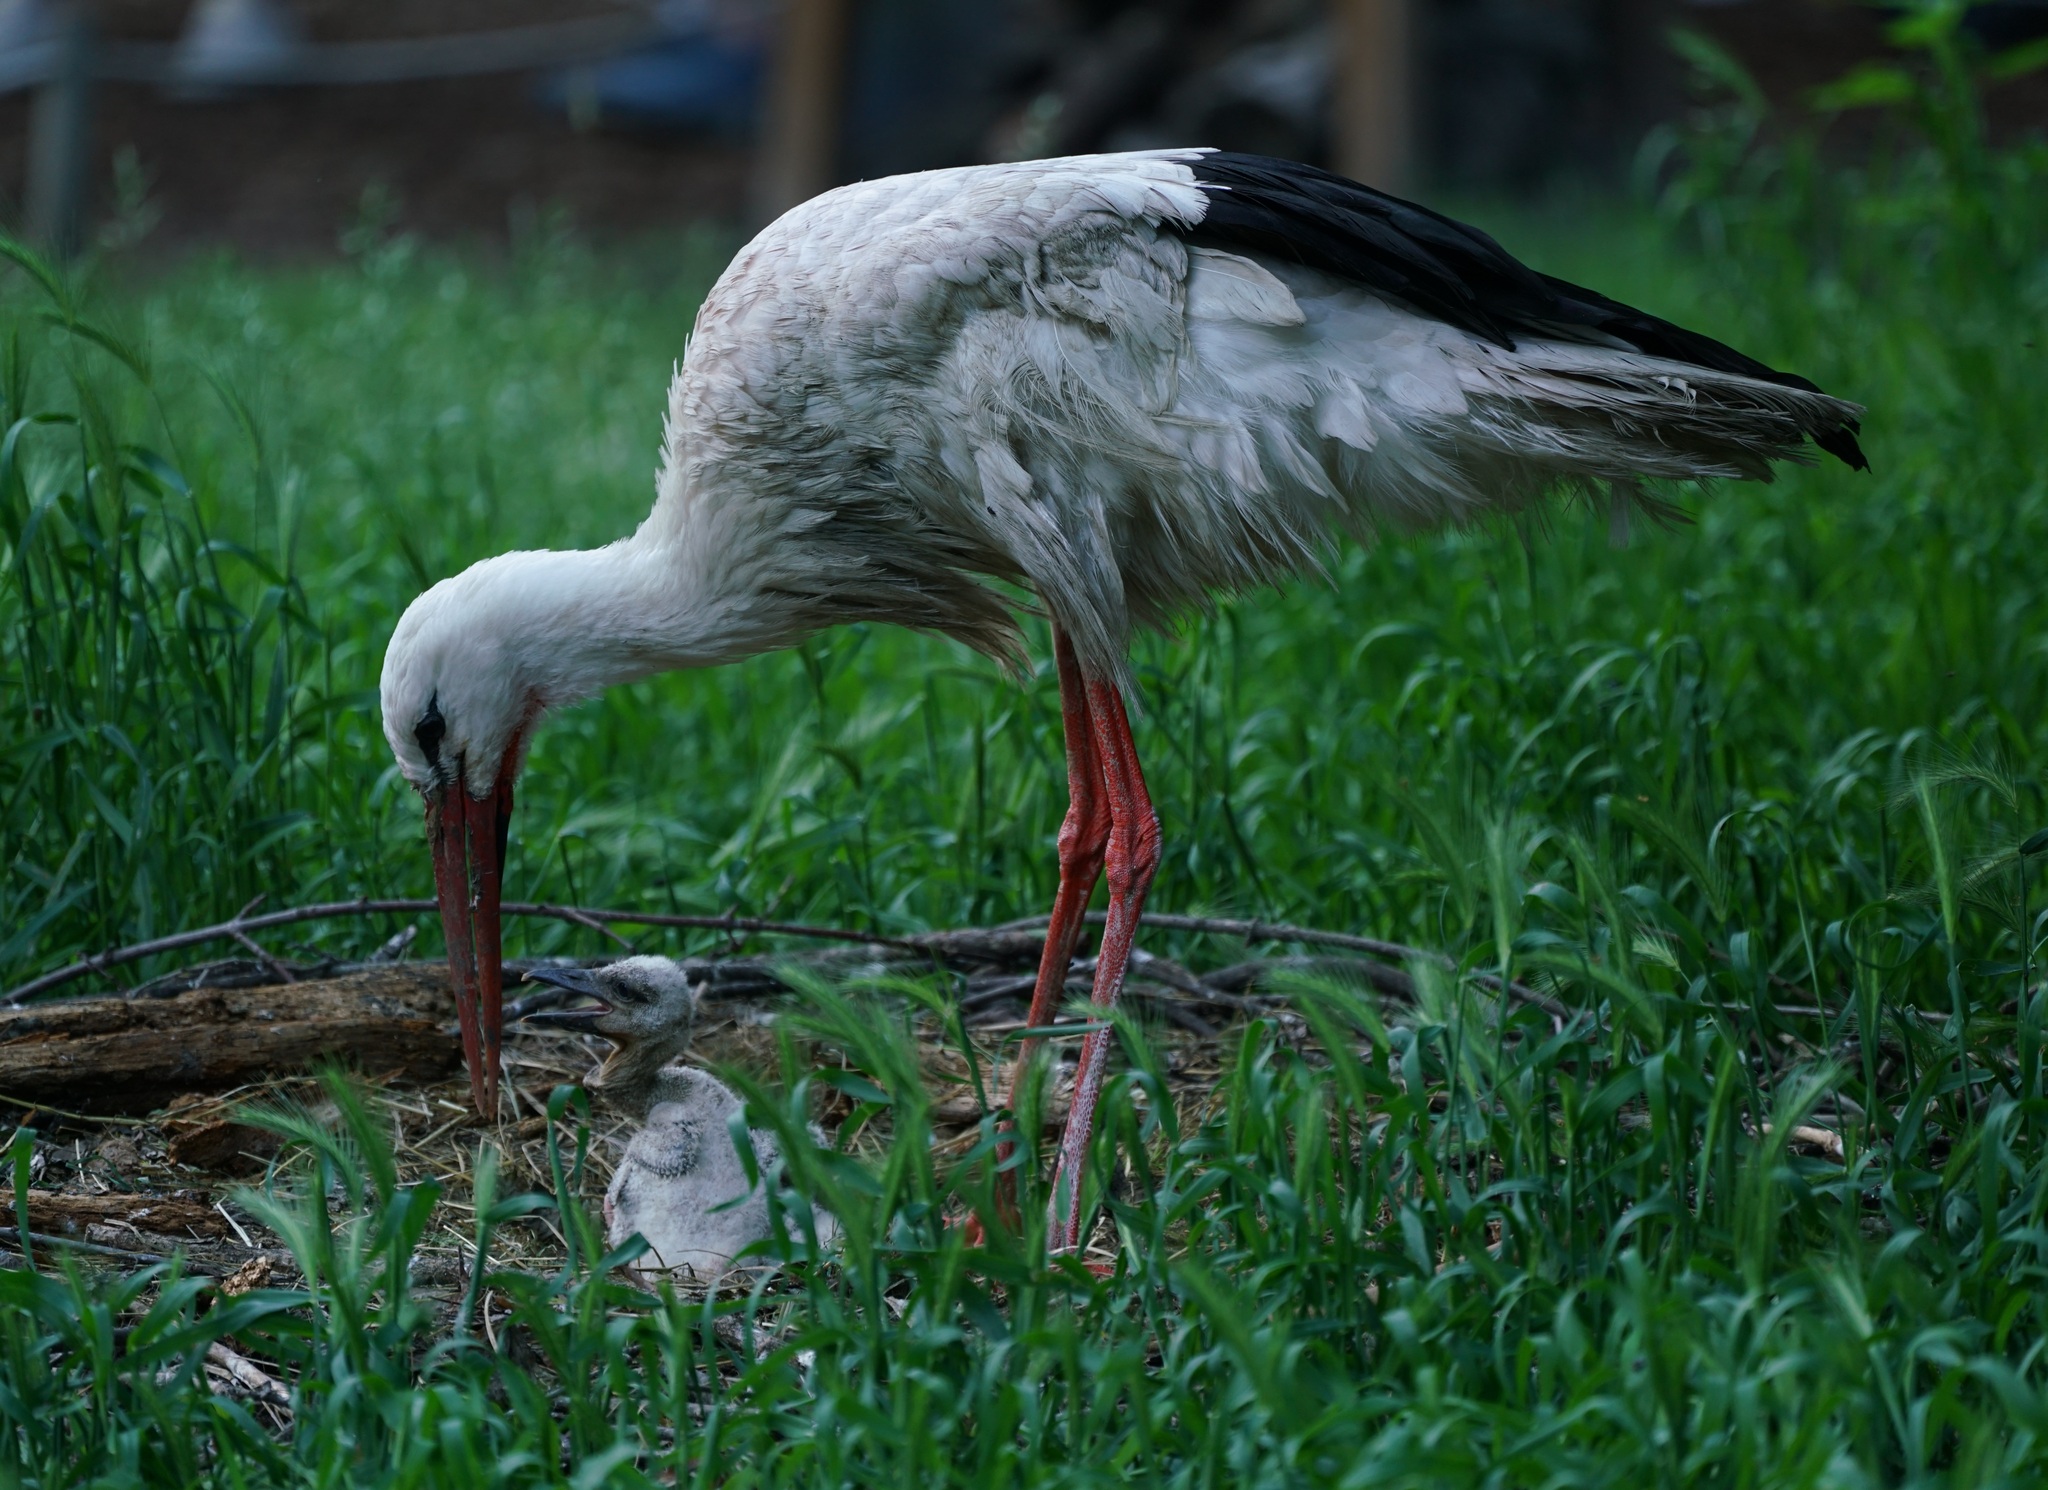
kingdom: Animalia
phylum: Chordata
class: Aves
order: Ciconiiformes
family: Ciconiidae
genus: Ciconia
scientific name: Ciconia ciconia
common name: White stork
